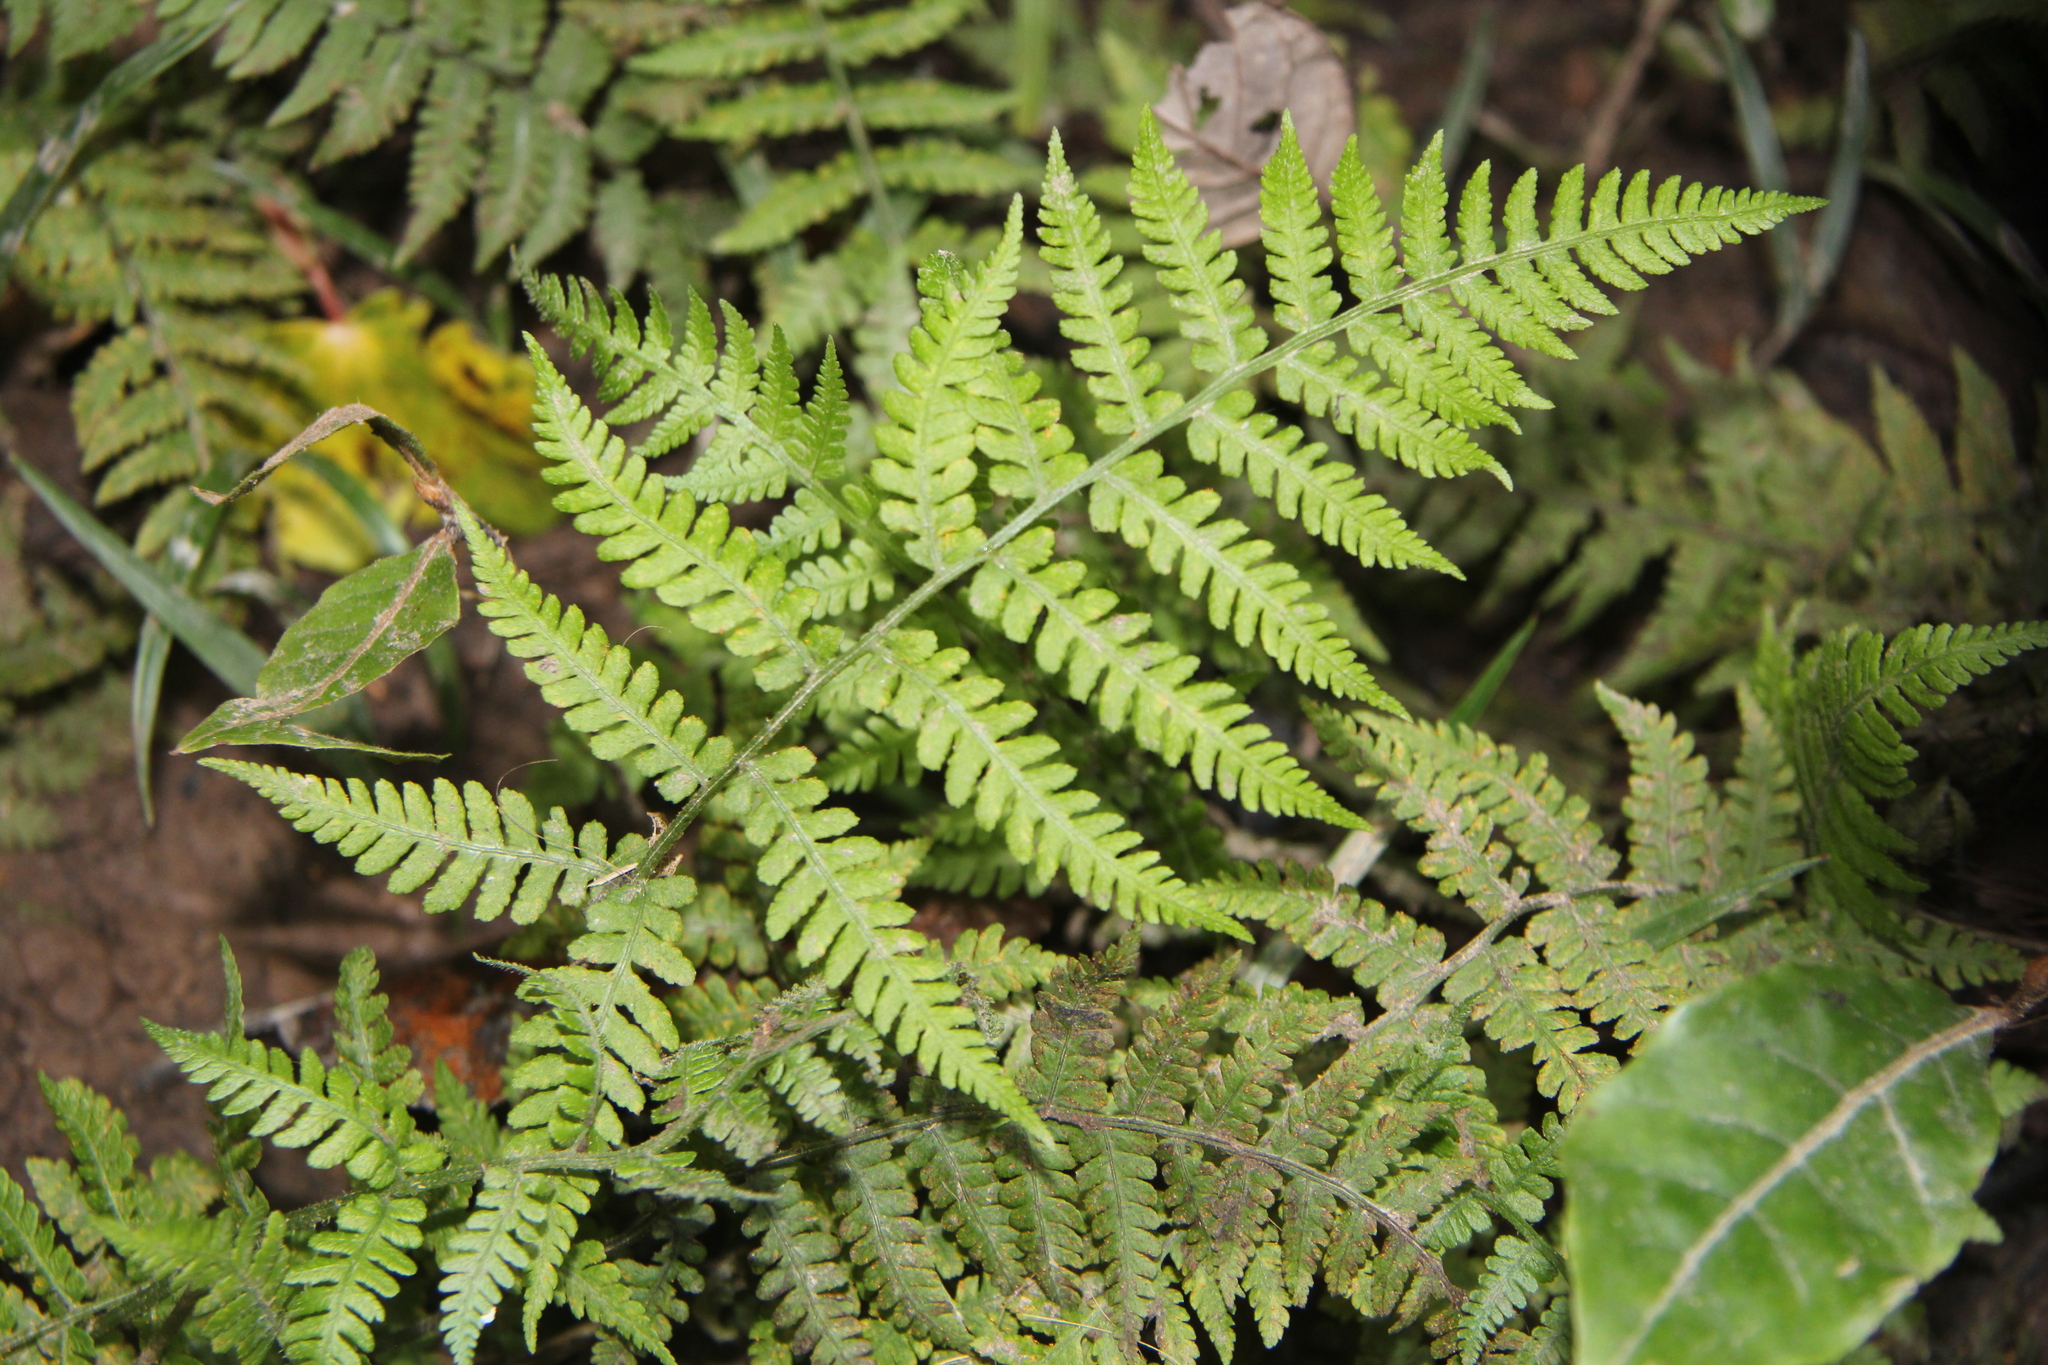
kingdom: Plantae
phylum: Tracheophyta
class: Polypodiopsida
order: Polypodiales
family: Athyriaceae
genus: Diplazium
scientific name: Diplazium congruum
